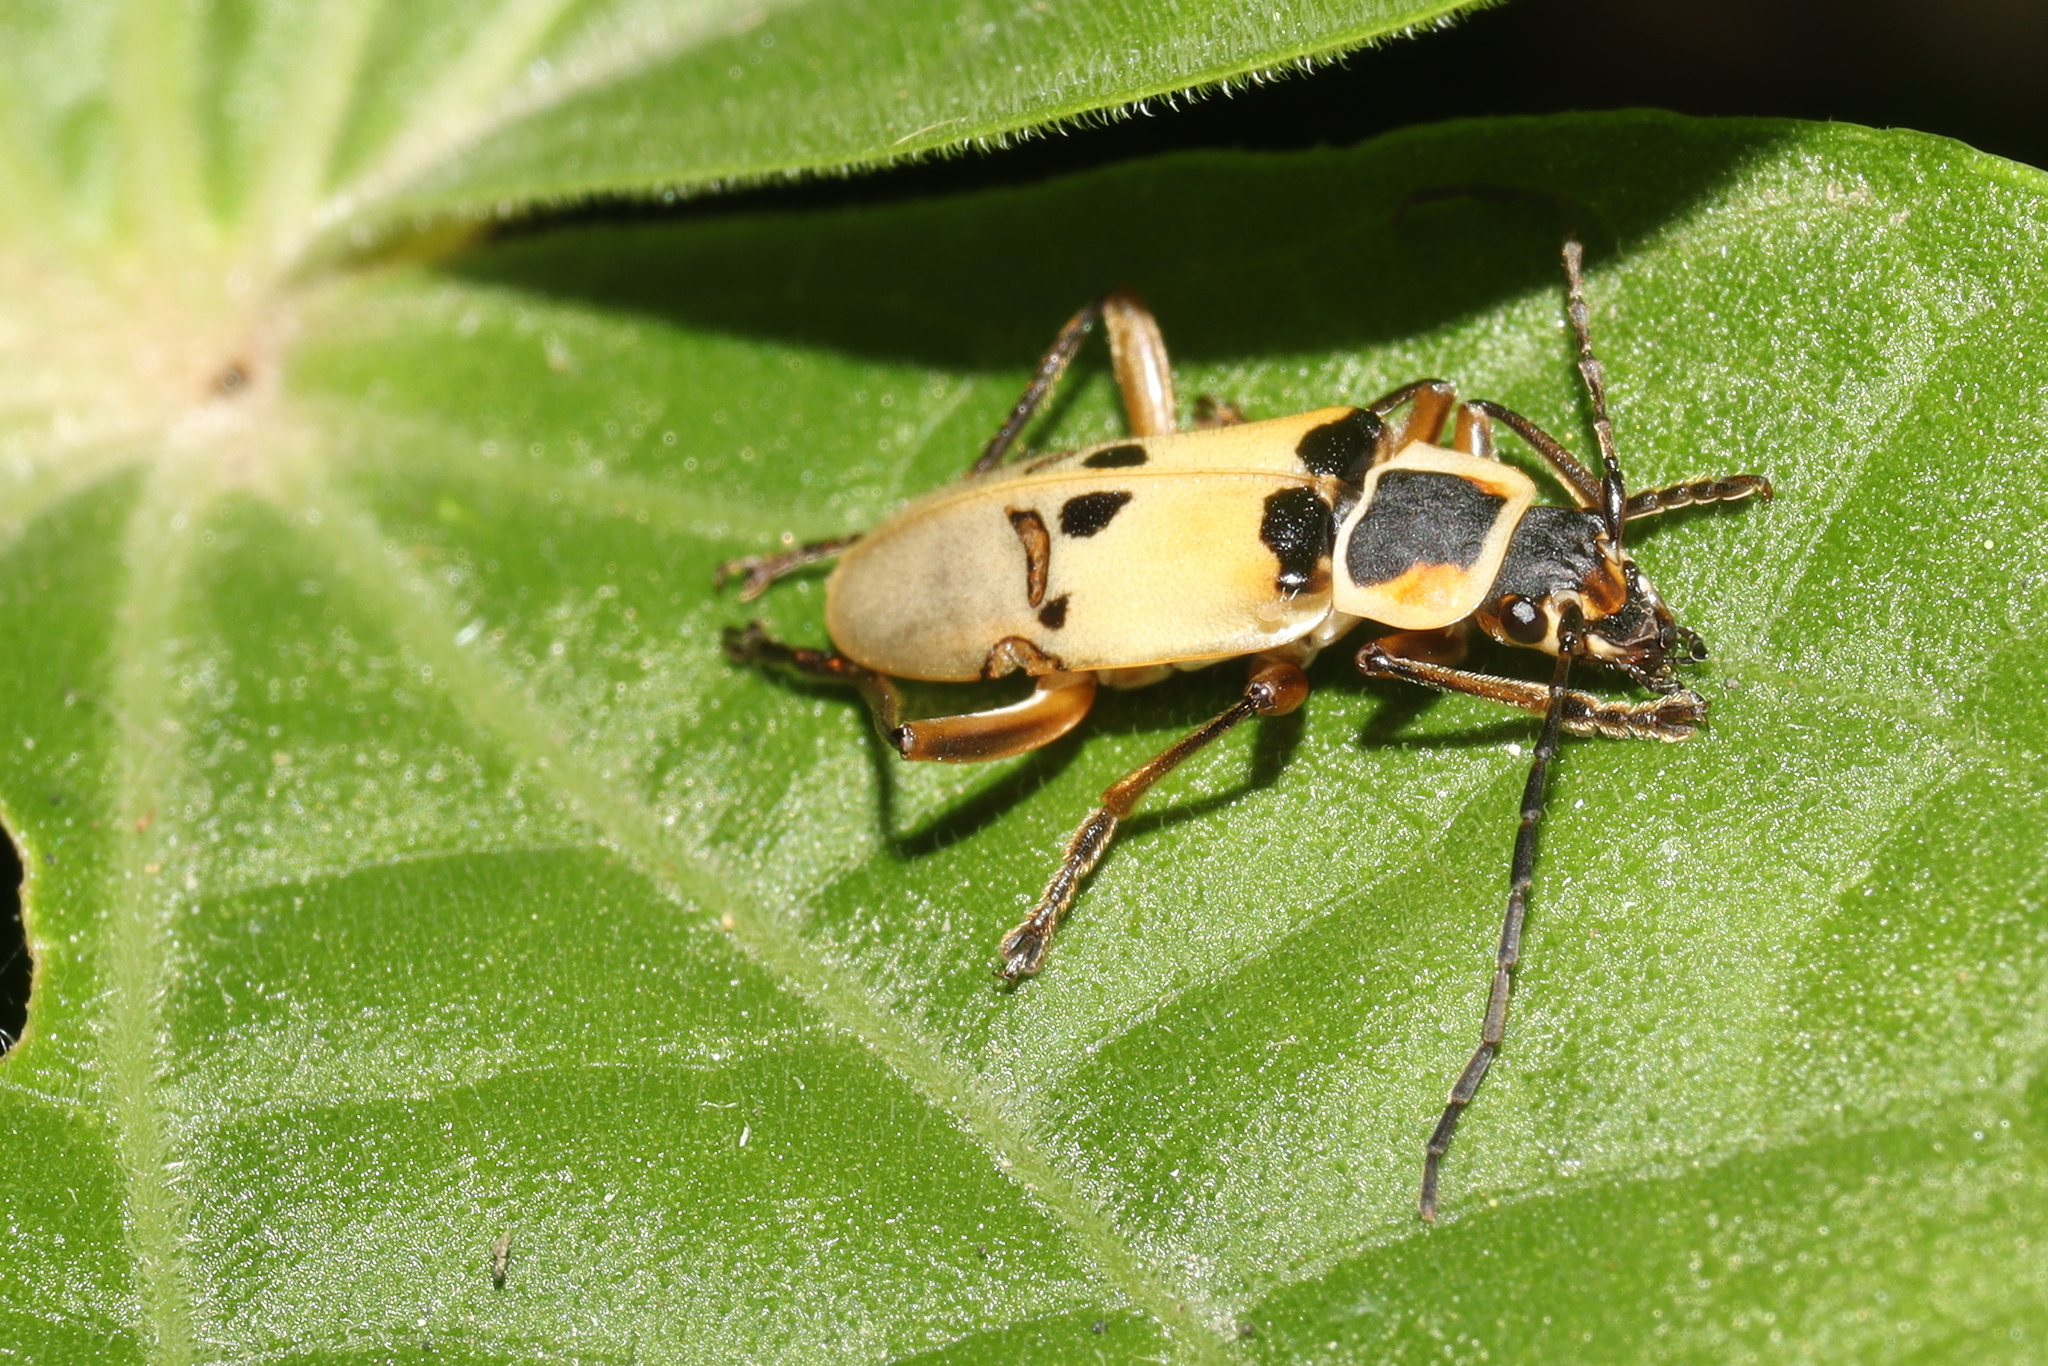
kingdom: Animalia
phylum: Arthropoda
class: Insecta
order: Coleoptera
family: Cantharidae
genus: Chauliognathus
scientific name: Chauliognathus
